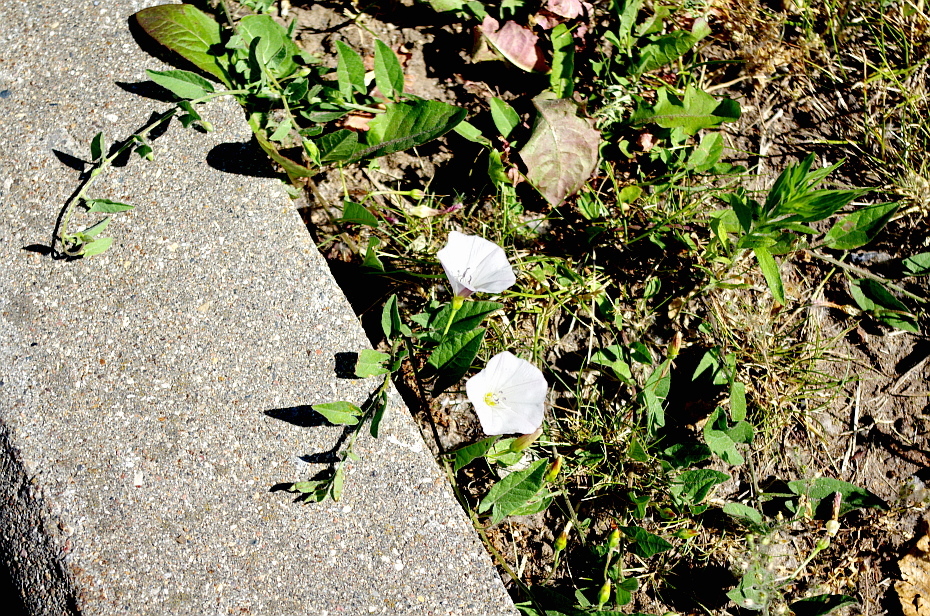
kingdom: Plantae
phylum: Tracheophyta
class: Magnoliopsida
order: Solanales
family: Convolvulaceae
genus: Convolvulus
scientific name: Convolvulus arvensis
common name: Field bindweed
